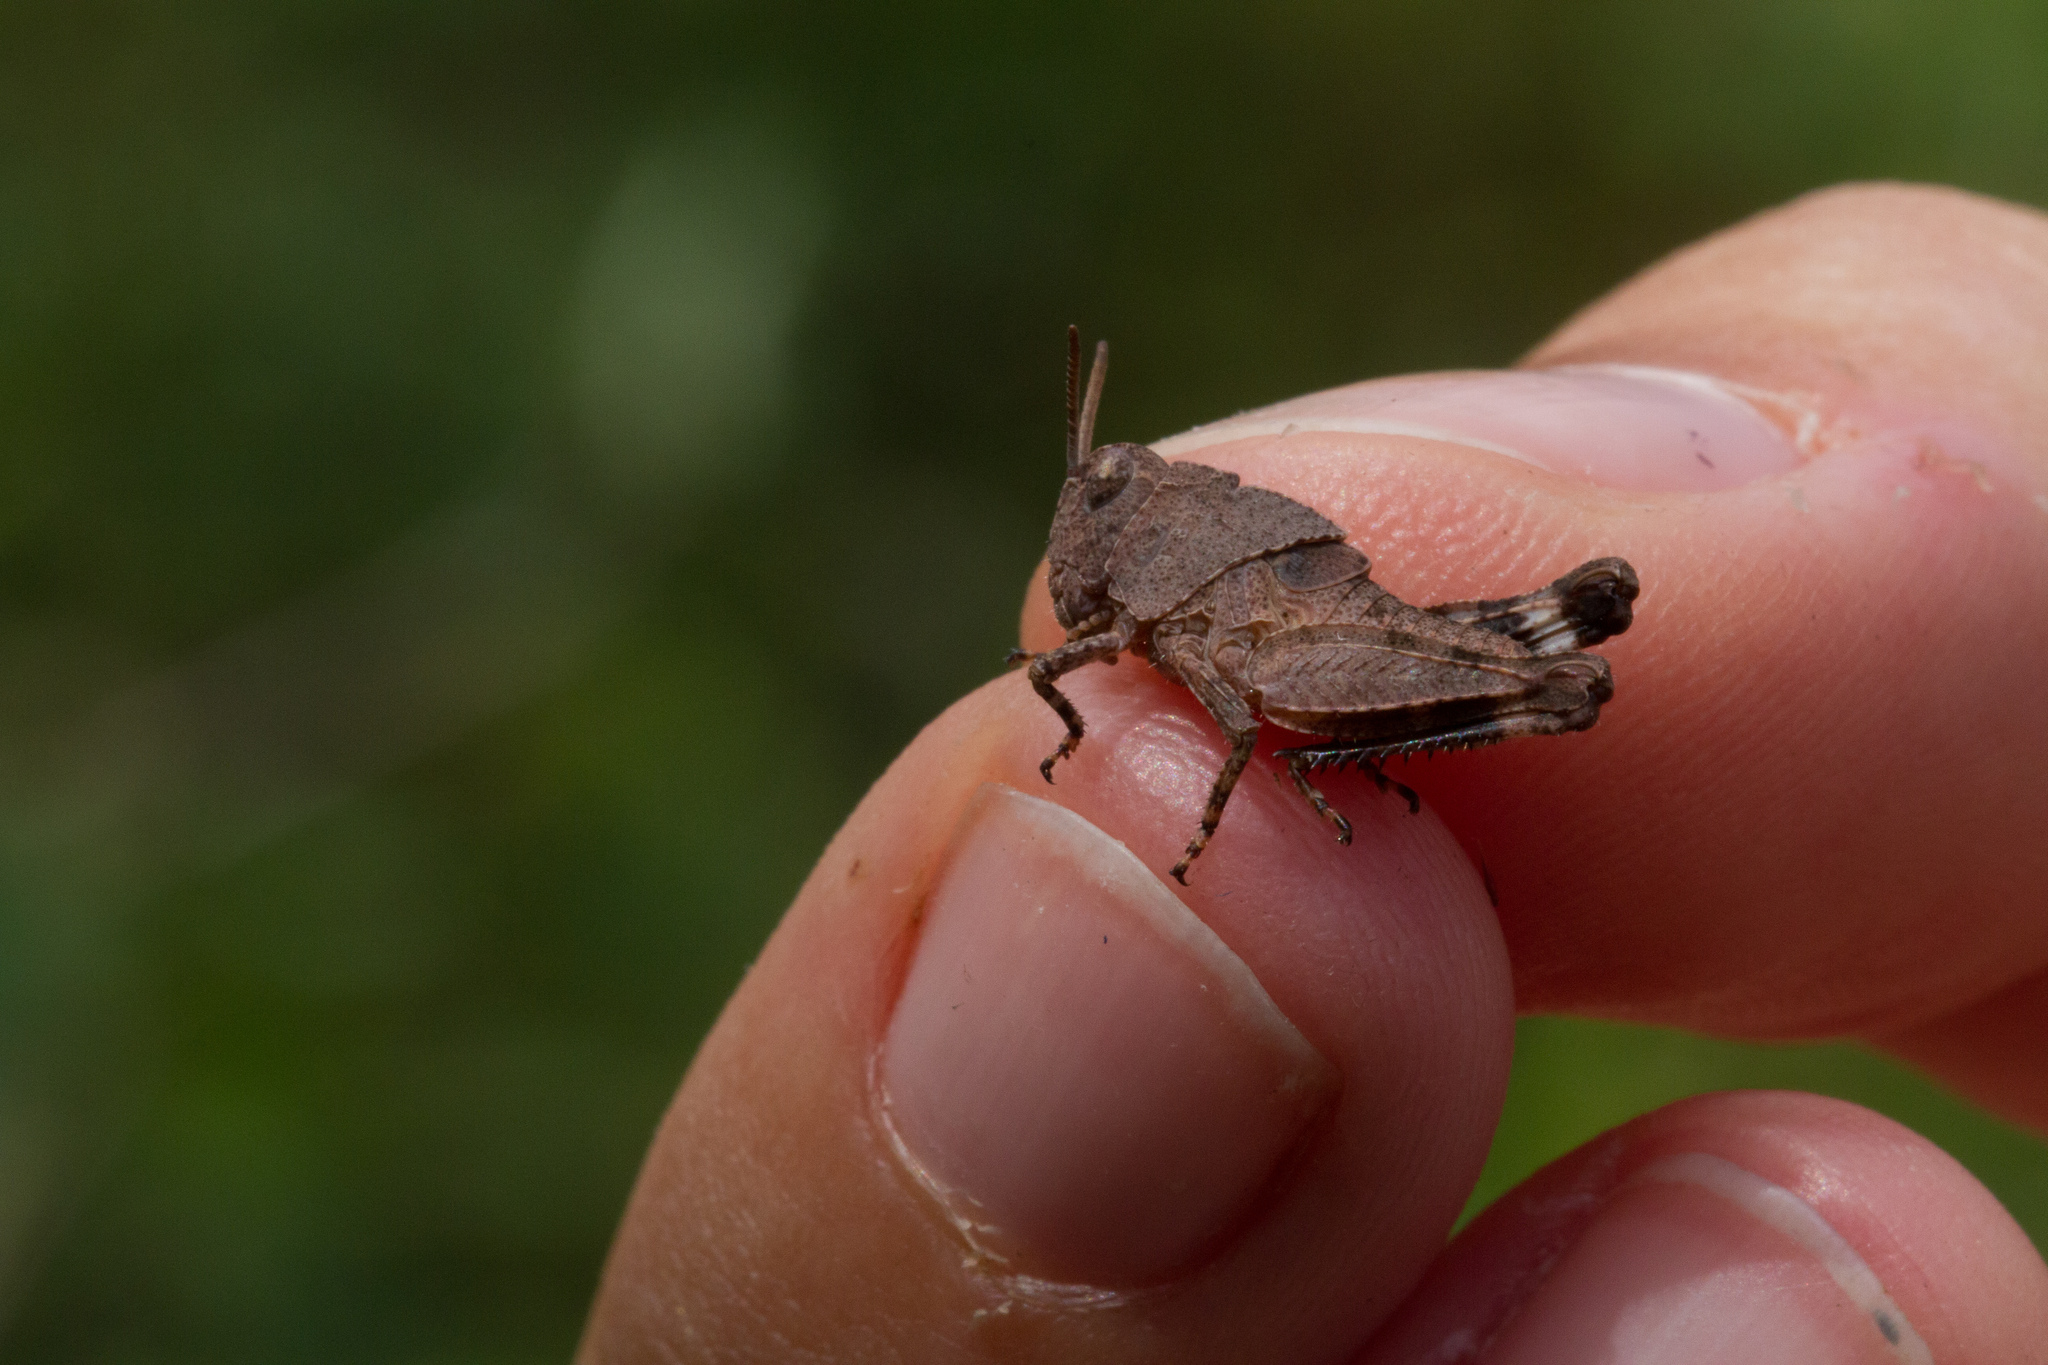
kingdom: Animalia
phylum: Arthropoda
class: Insecta
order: Orthoptera
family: Acrididae
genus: Oedipoda
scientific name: Oedipoda caerulescens
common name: Blue-winged grasshopper
